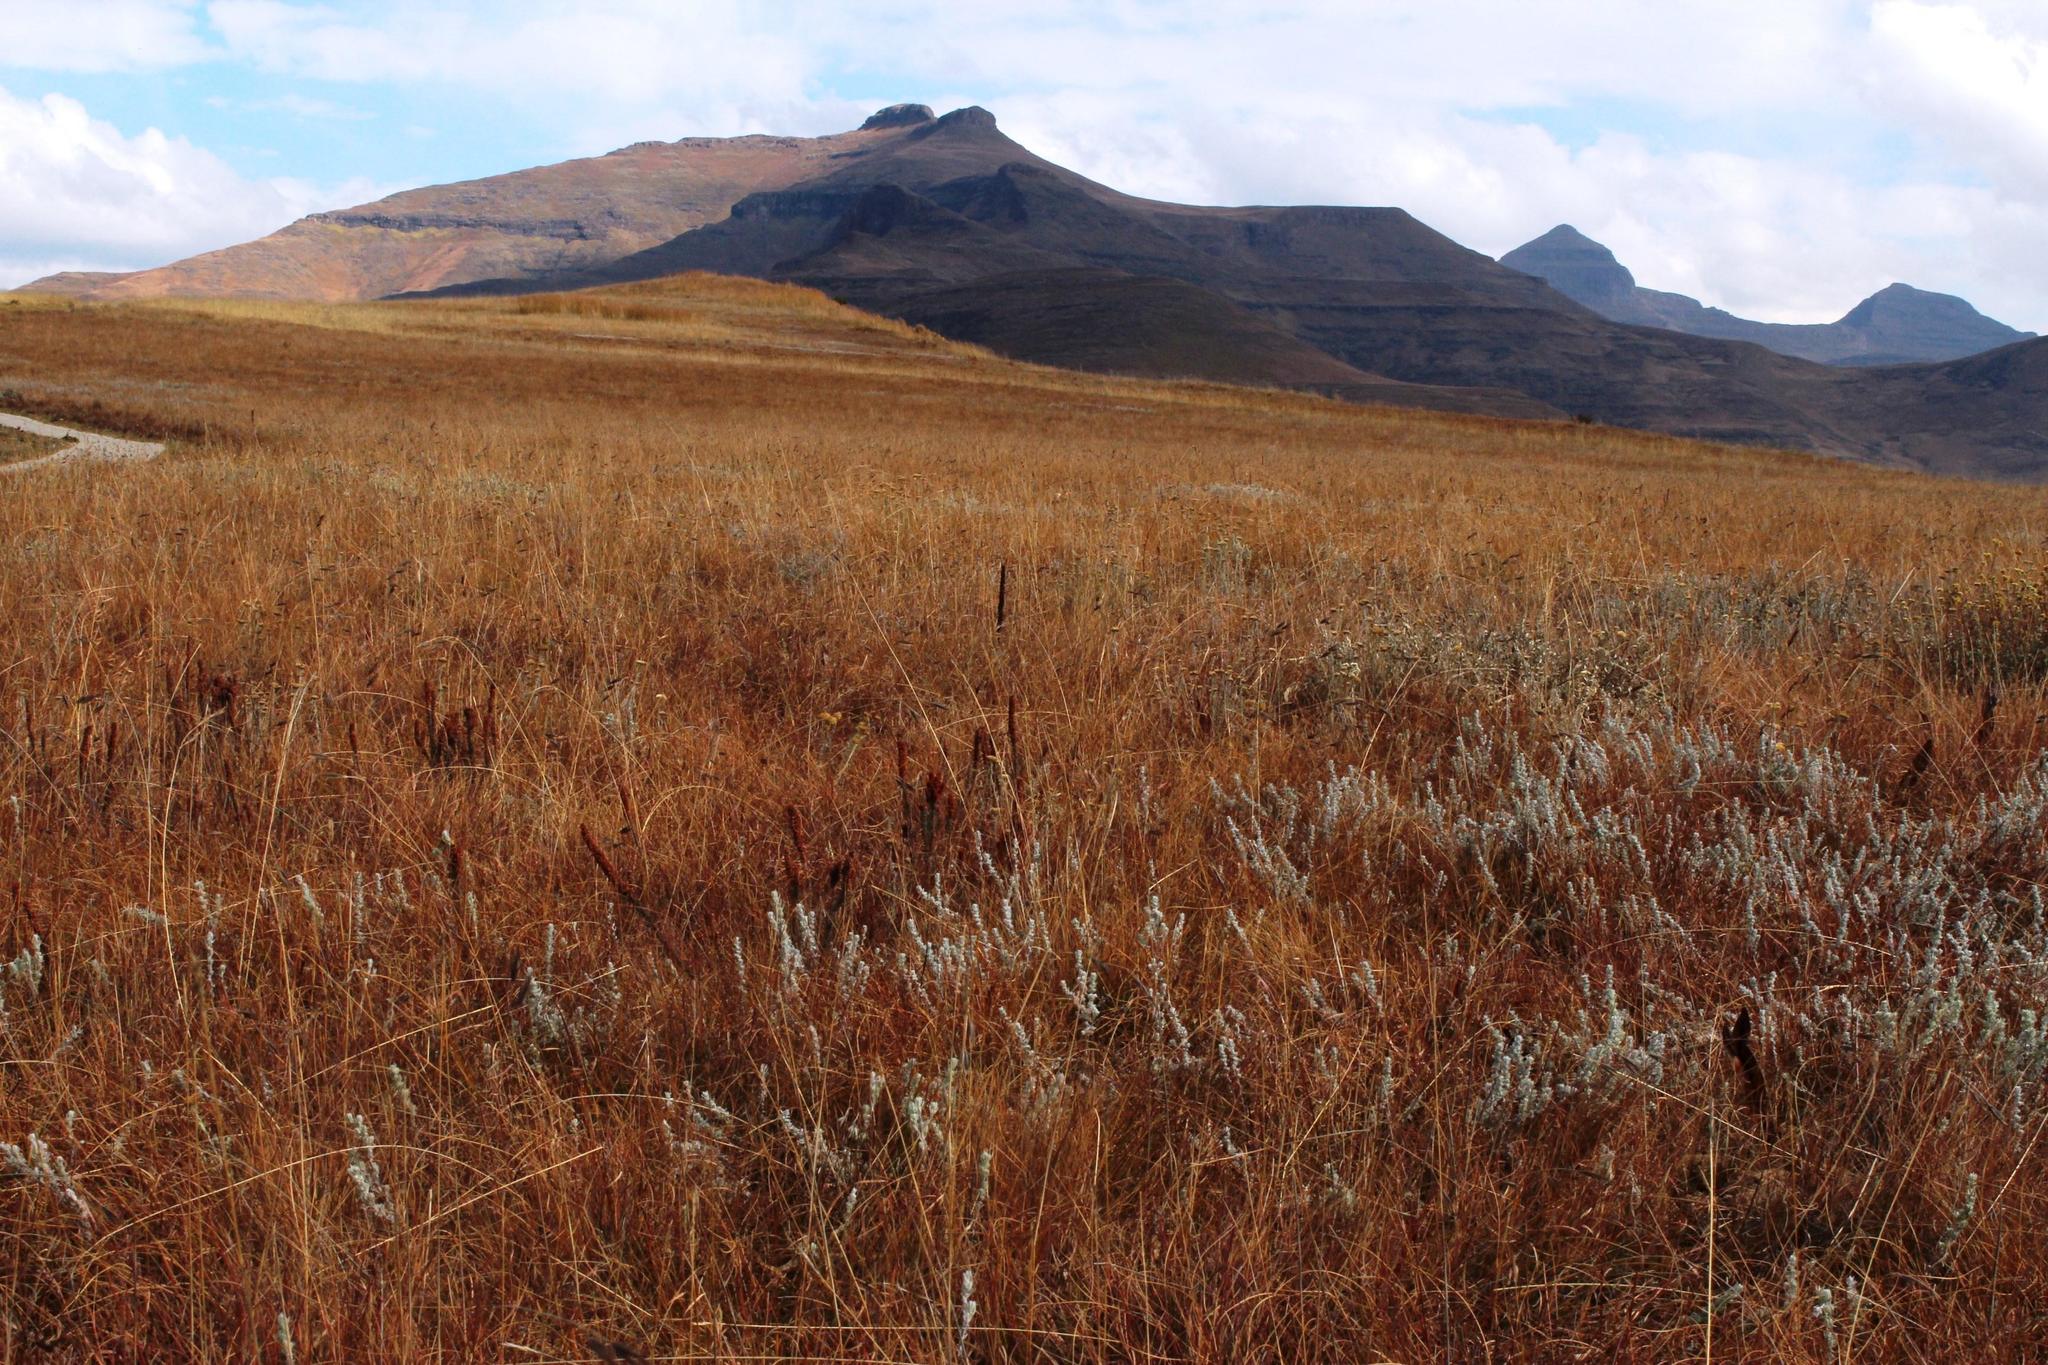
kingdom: Plantae
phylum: Tracheophyta
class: Magnoliopsida
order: Ericales
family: Ericaceae
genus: Erica
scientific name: Erica alopecurus
